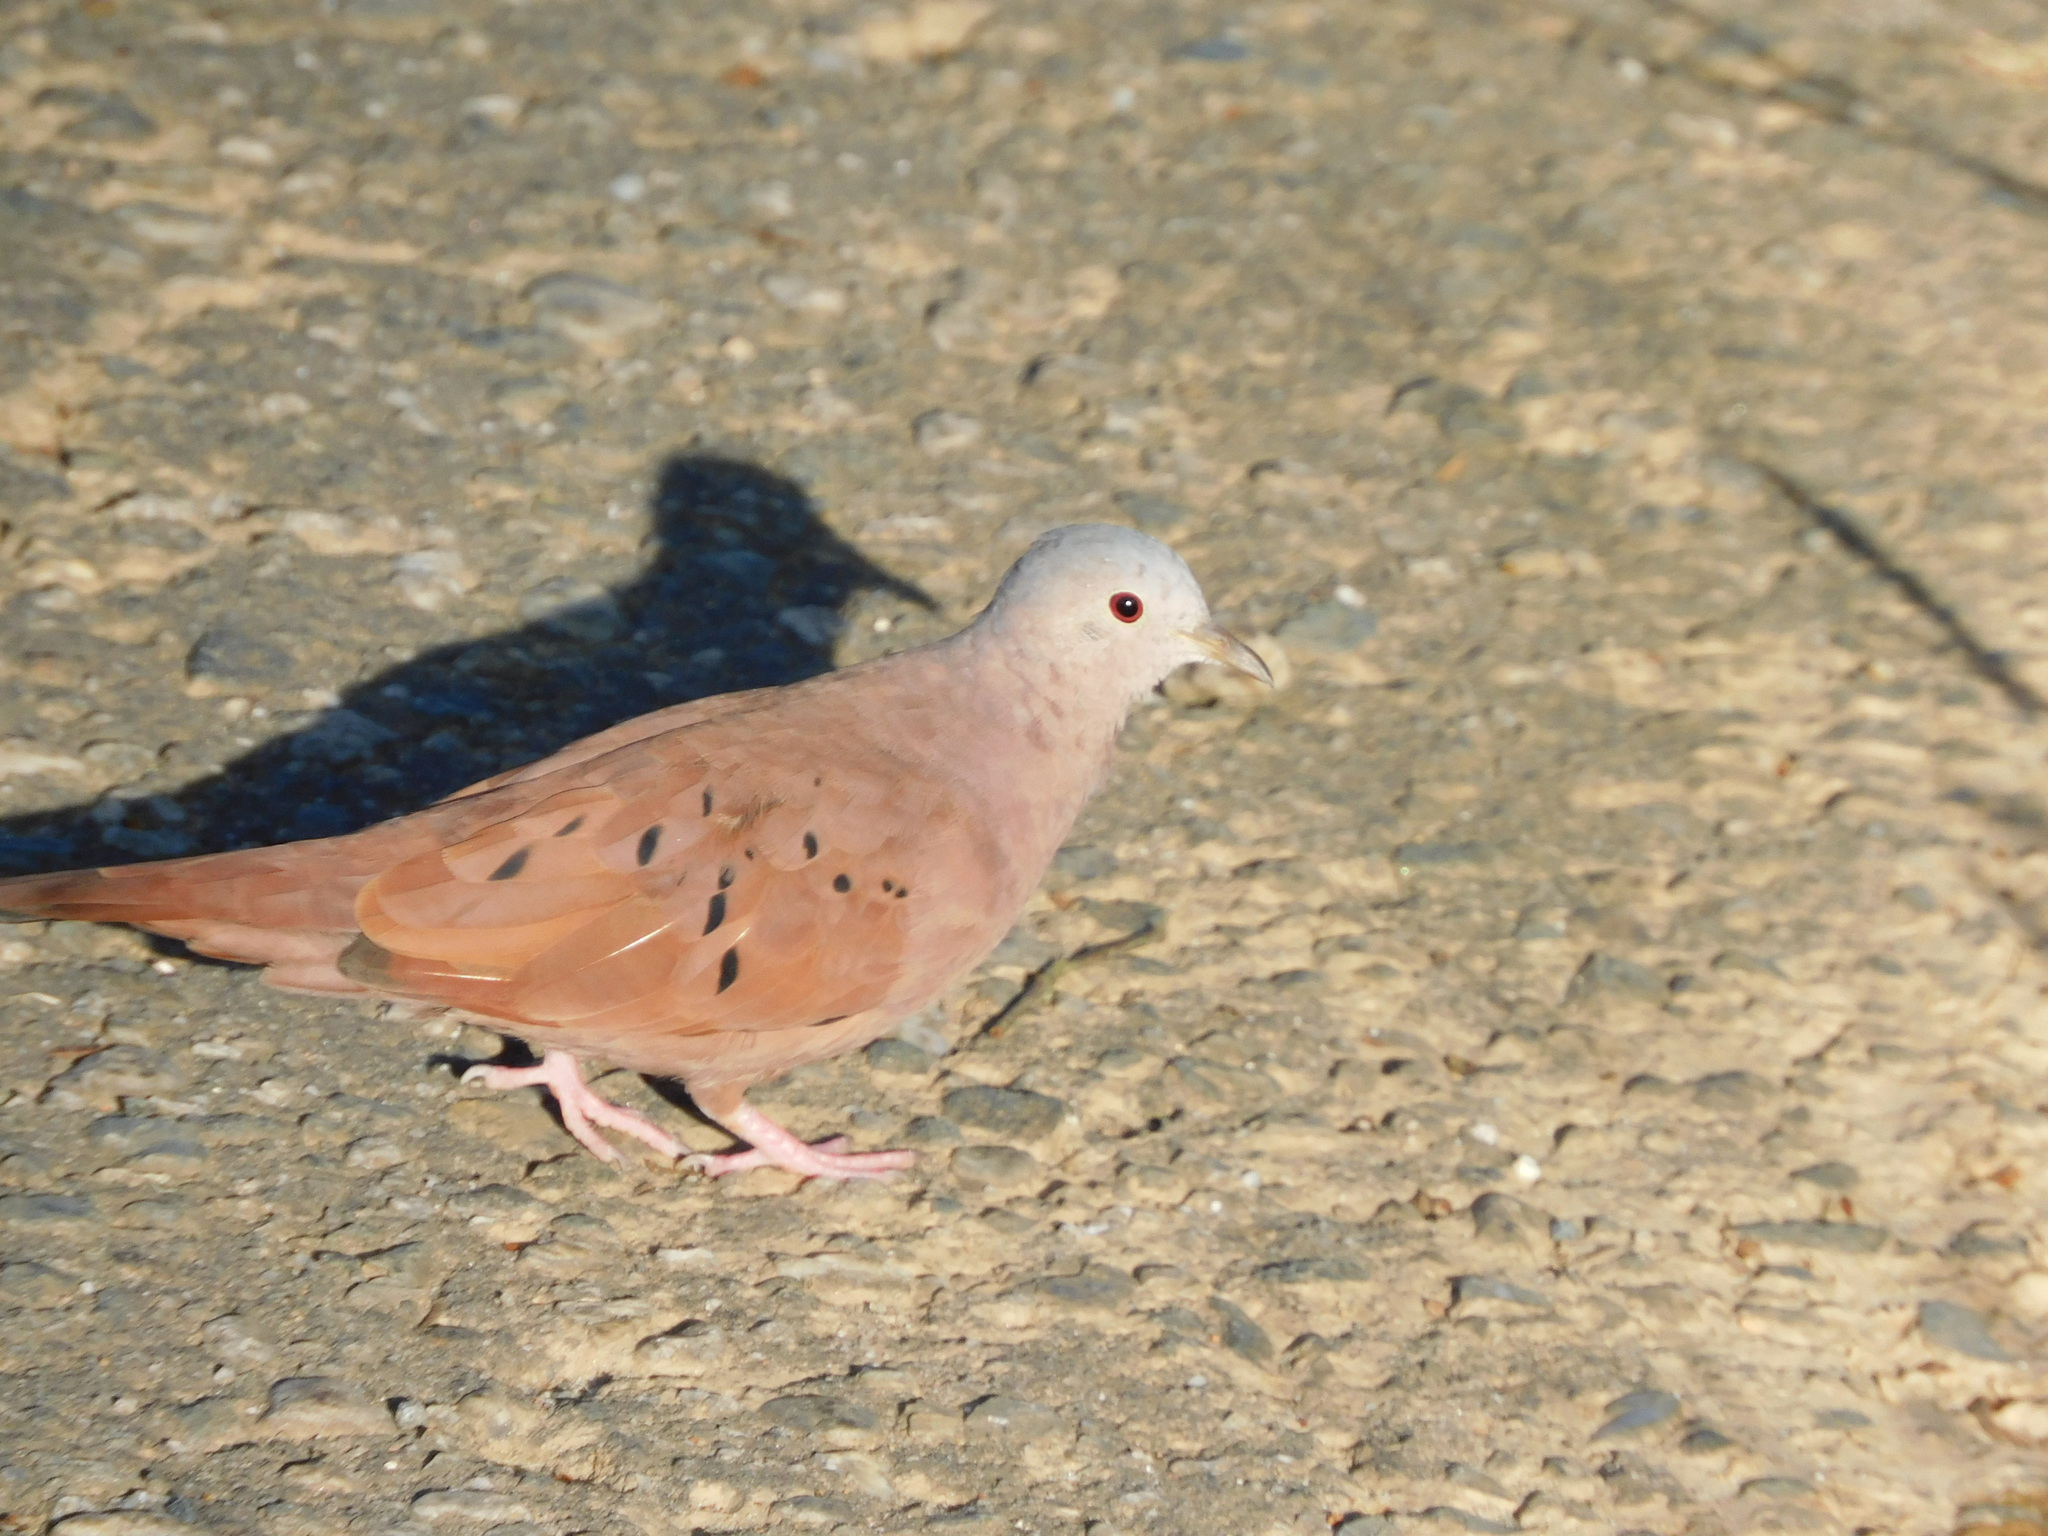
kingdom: Animalia
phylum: Chordata
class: Aves
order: Columbiformes
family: Columbidae
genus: Columbina
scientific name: Columbina talpacoti
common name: Ruddy ground dove
